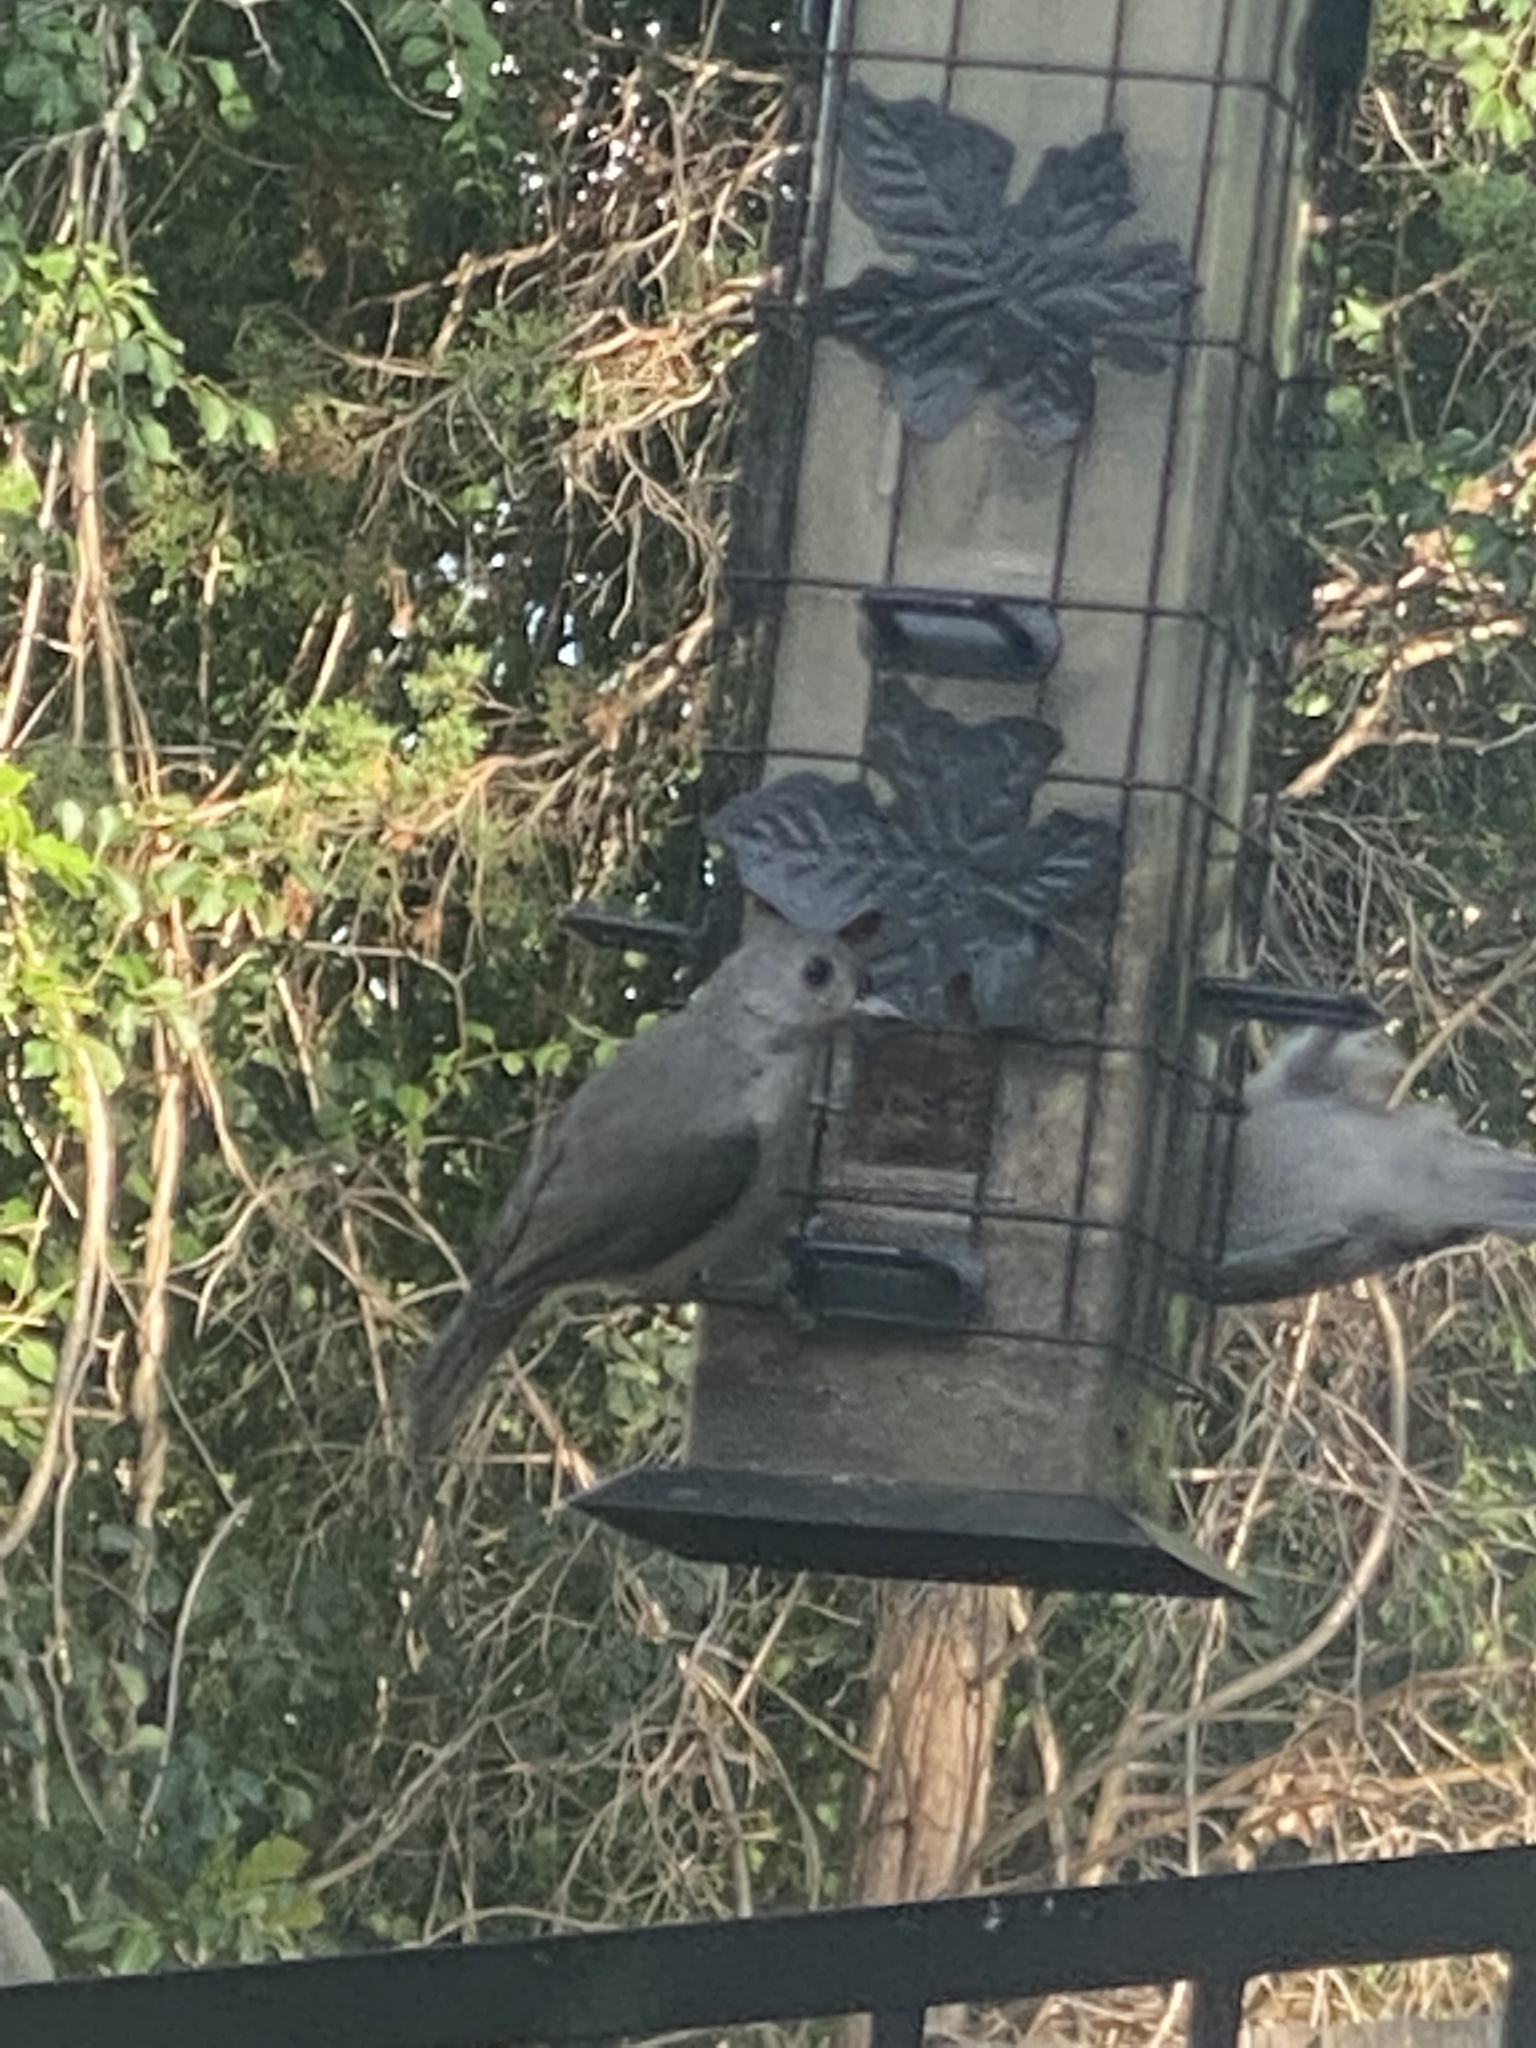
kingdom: Animalia
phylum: Chordata
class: Aves
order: Passeriformes
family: Paridae
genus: Baeolophus
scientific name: Baeolophus bicolor
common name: Tufted titmouse
